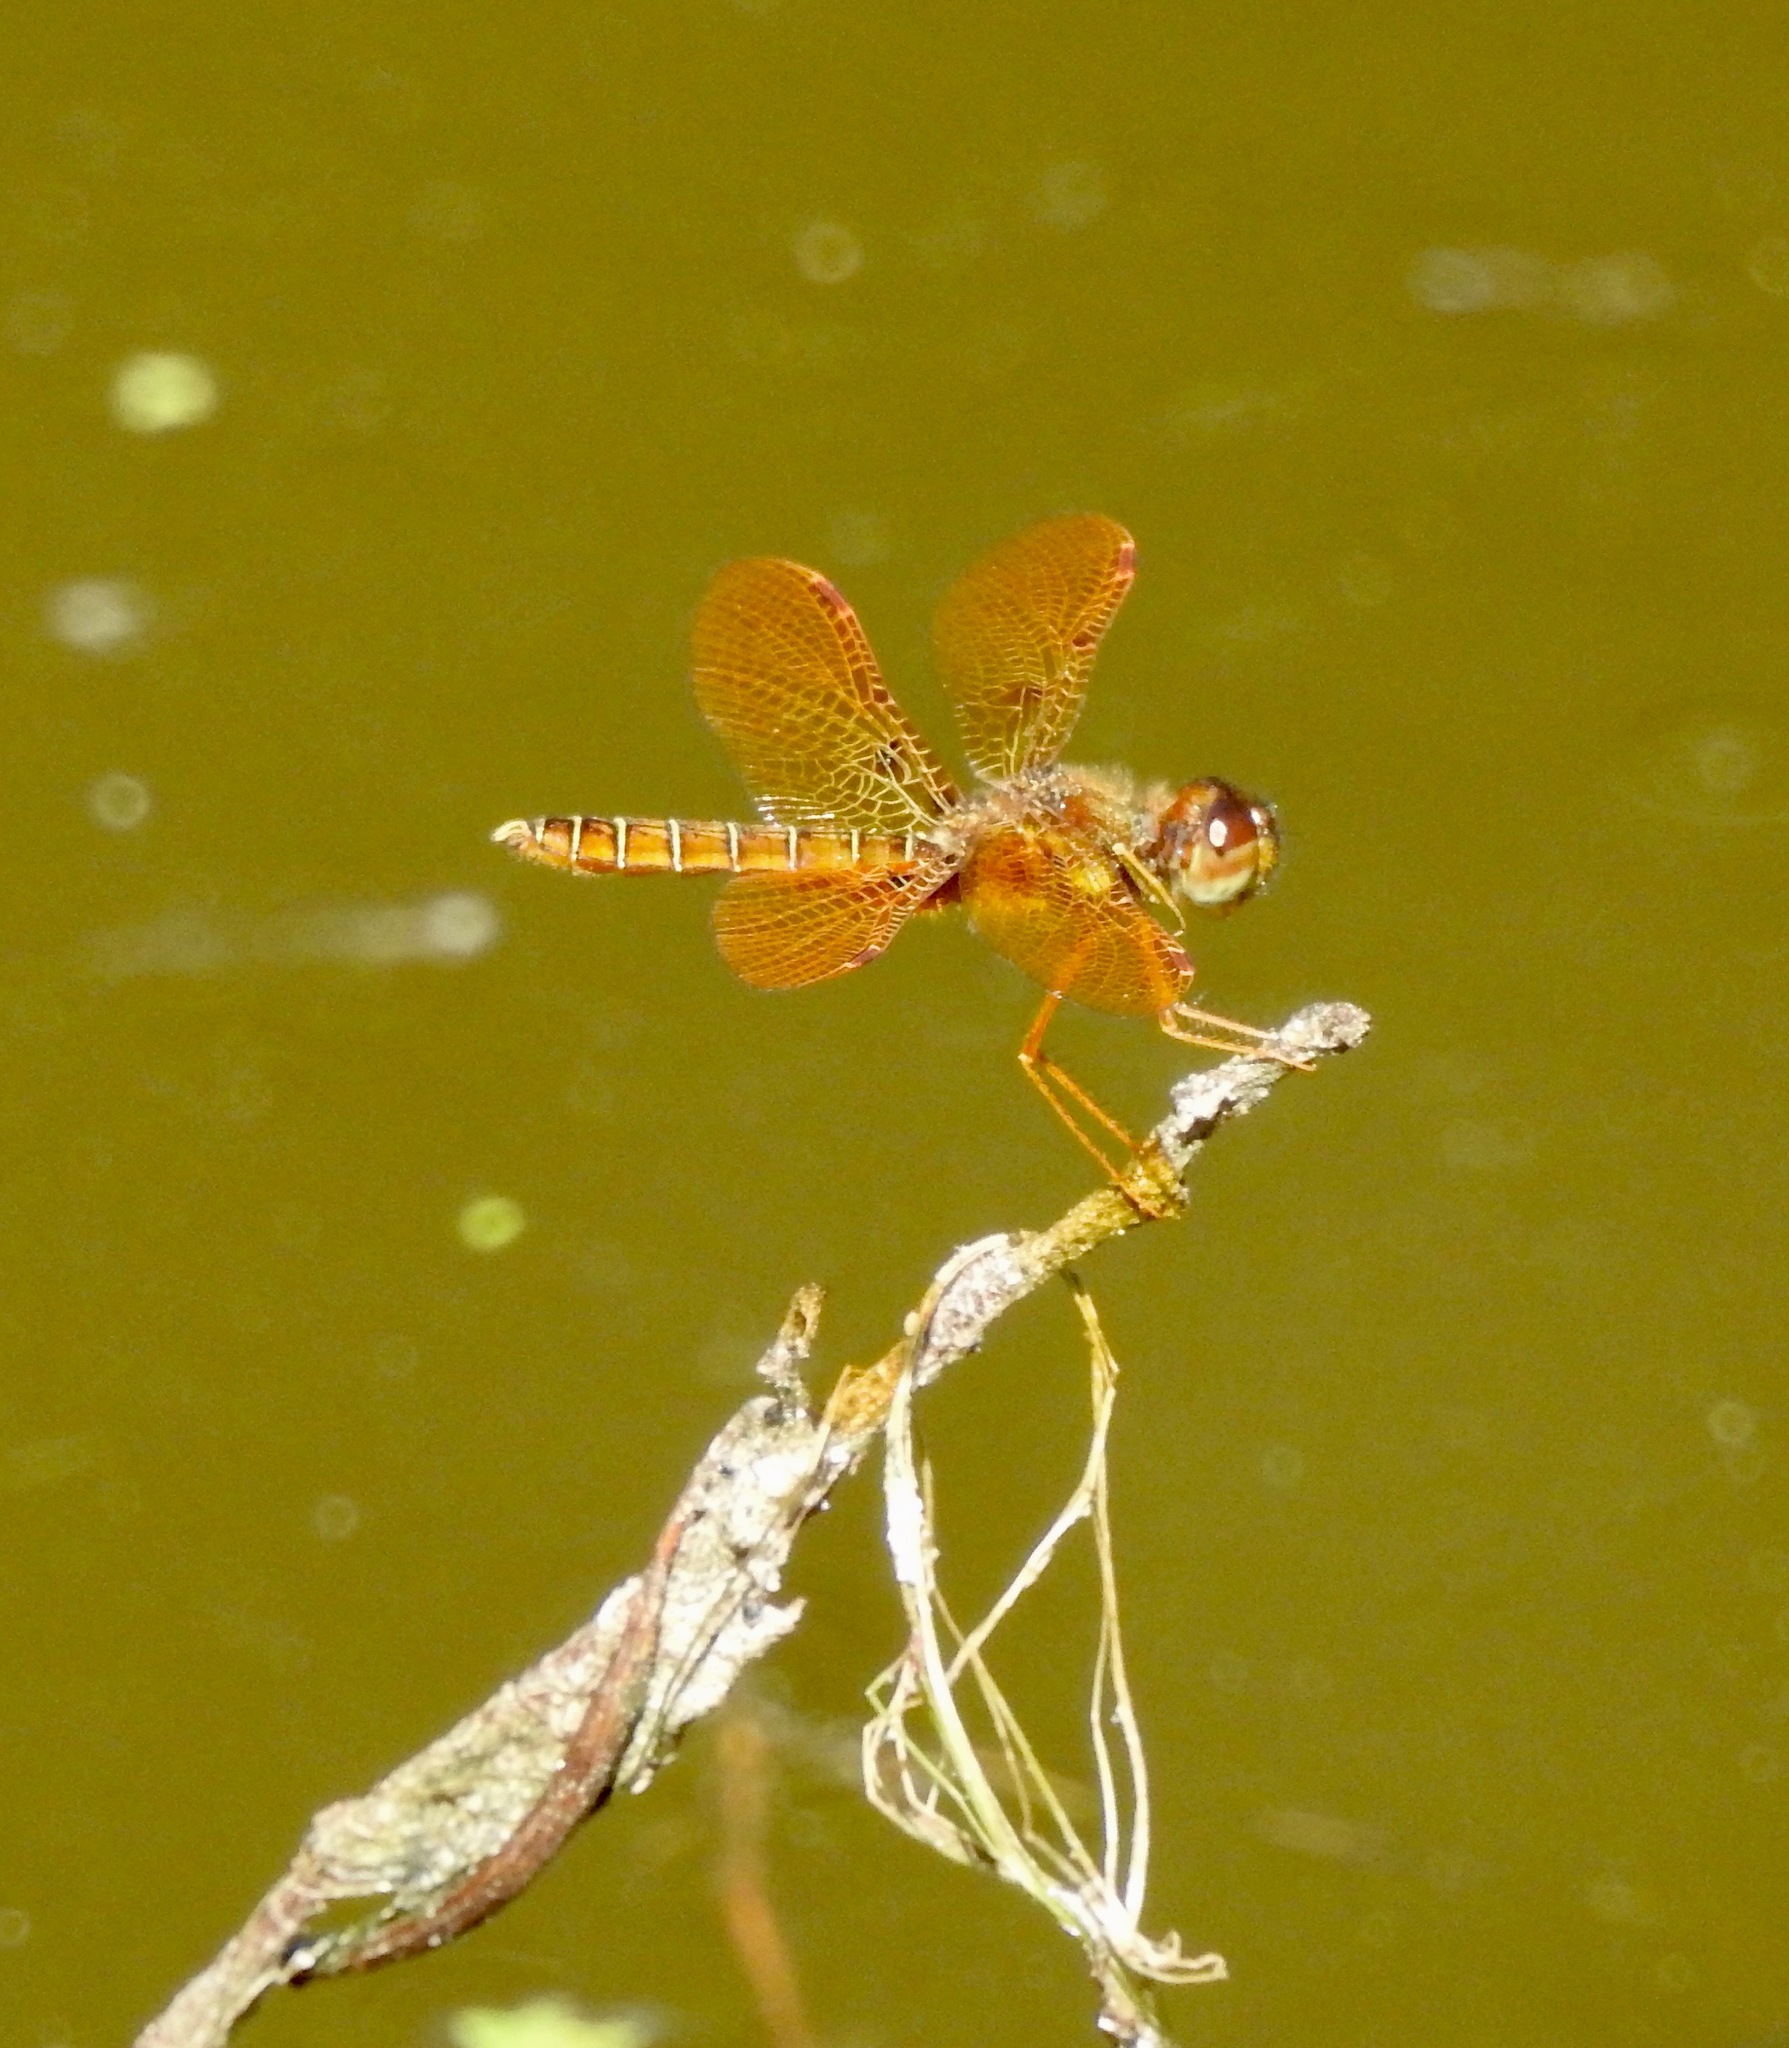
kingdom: Animalia
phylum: Arthropoda
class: Insecta
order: Odonata
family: Libellulidae
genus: Perithemis
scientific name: Perithemis tenera
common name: Eastern amberwing
